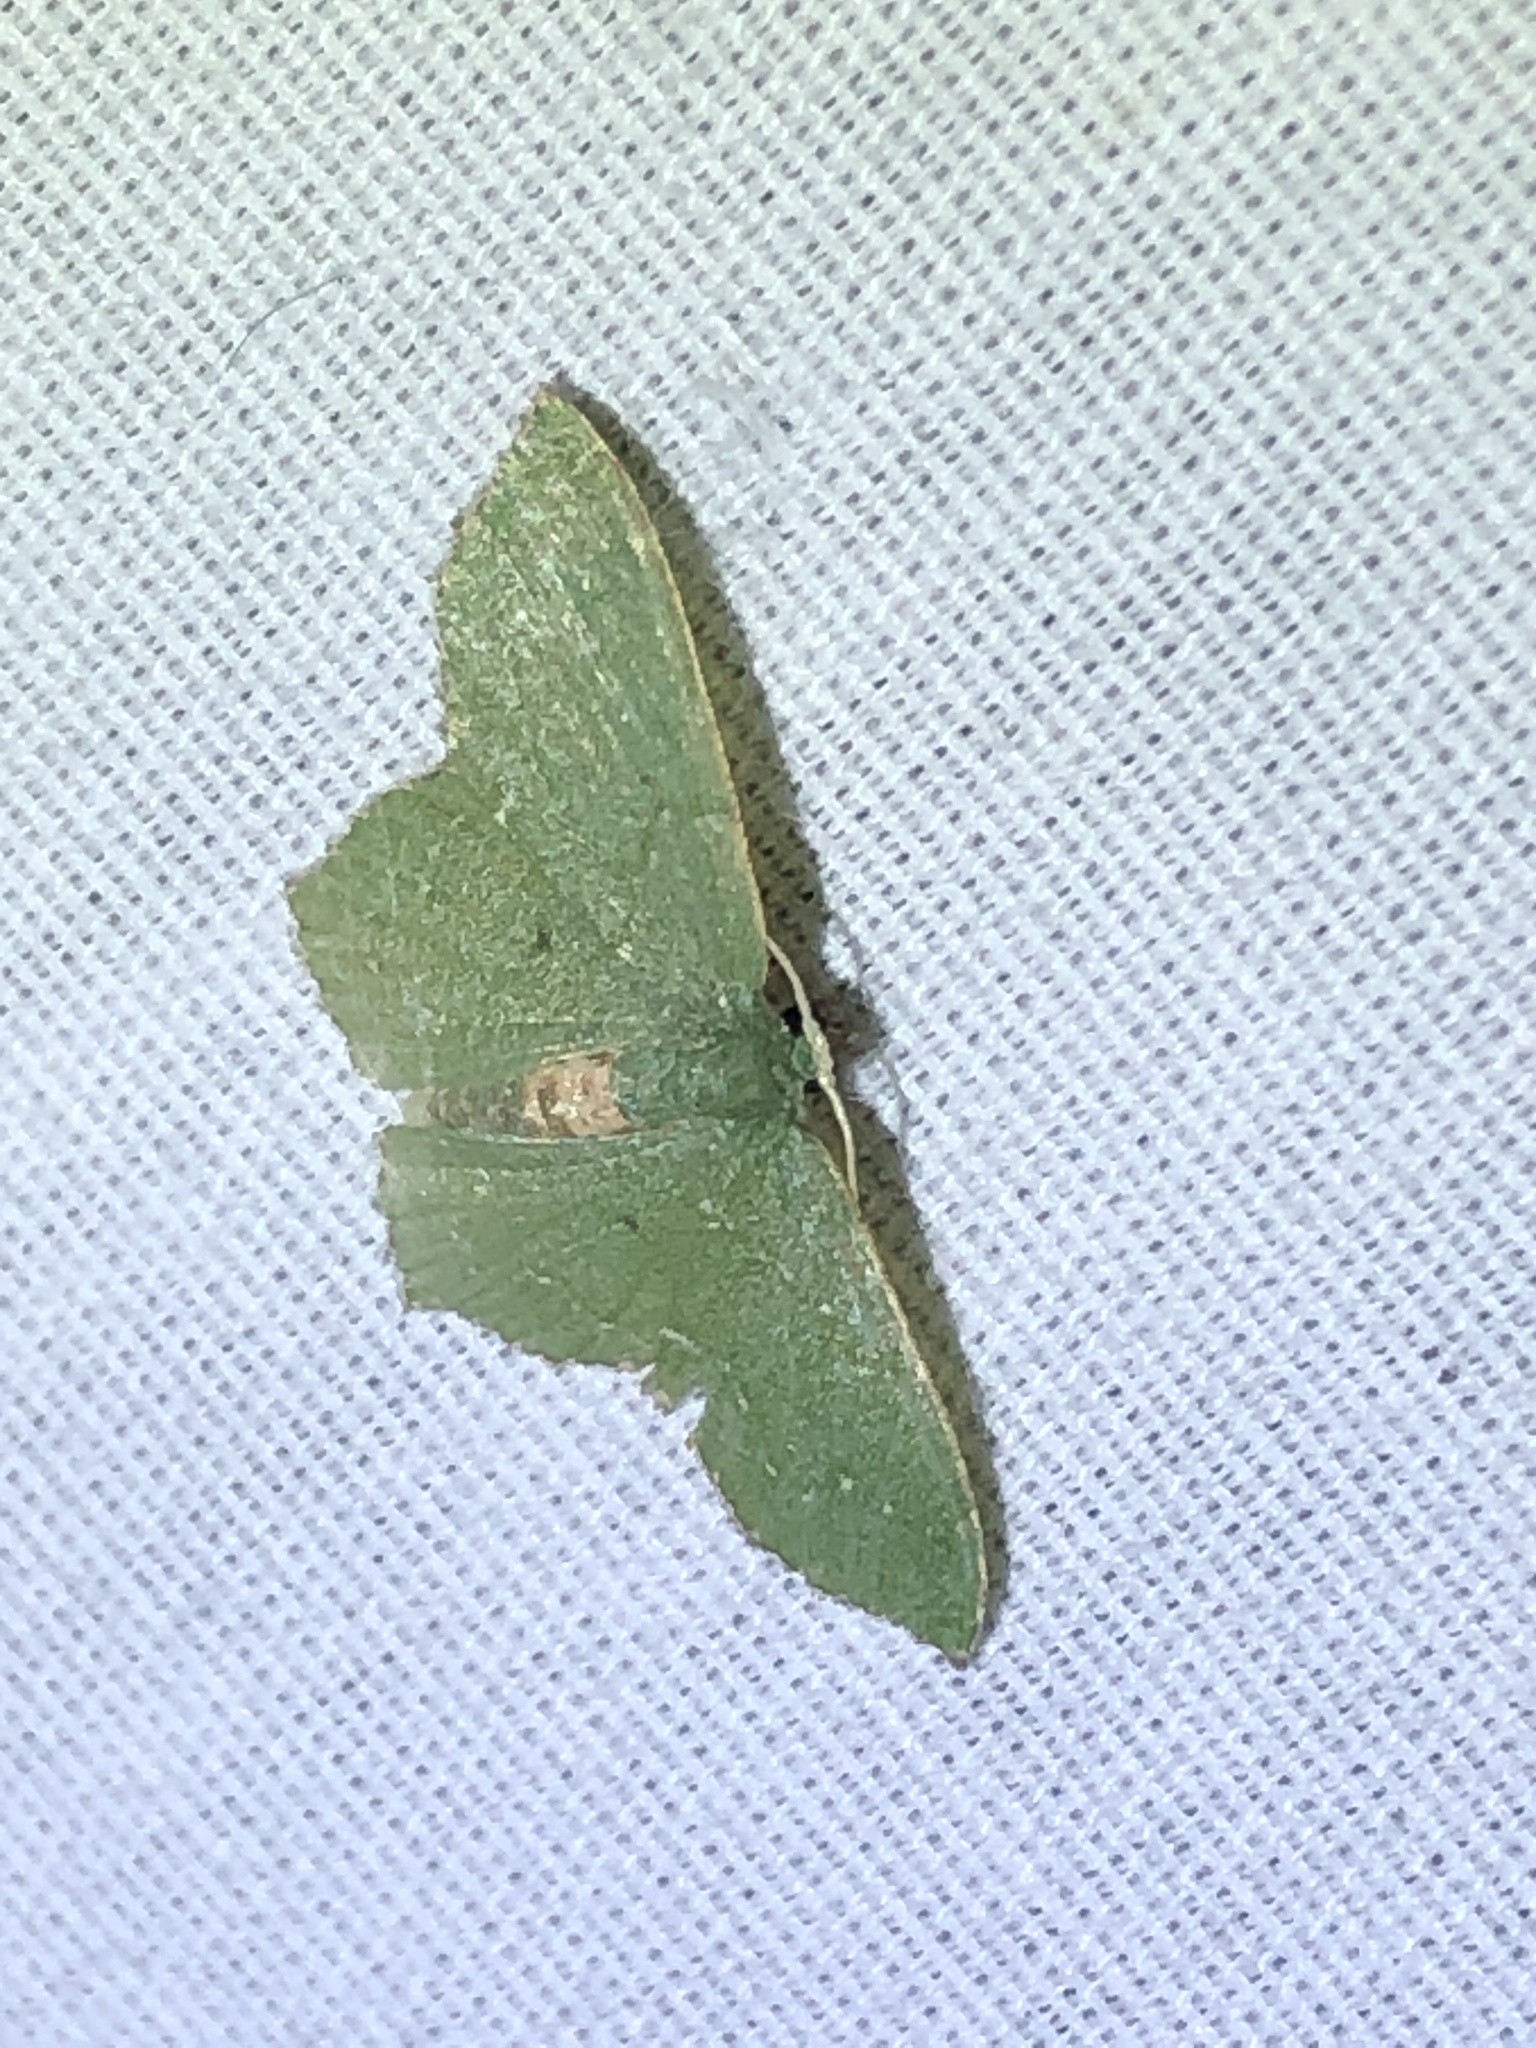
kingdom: Animalia
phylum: Arthropoda
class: Insecta
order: Lepidoptera
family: Geometridae
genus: Chloropteryx
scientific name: Chloropteryx nordicaria
